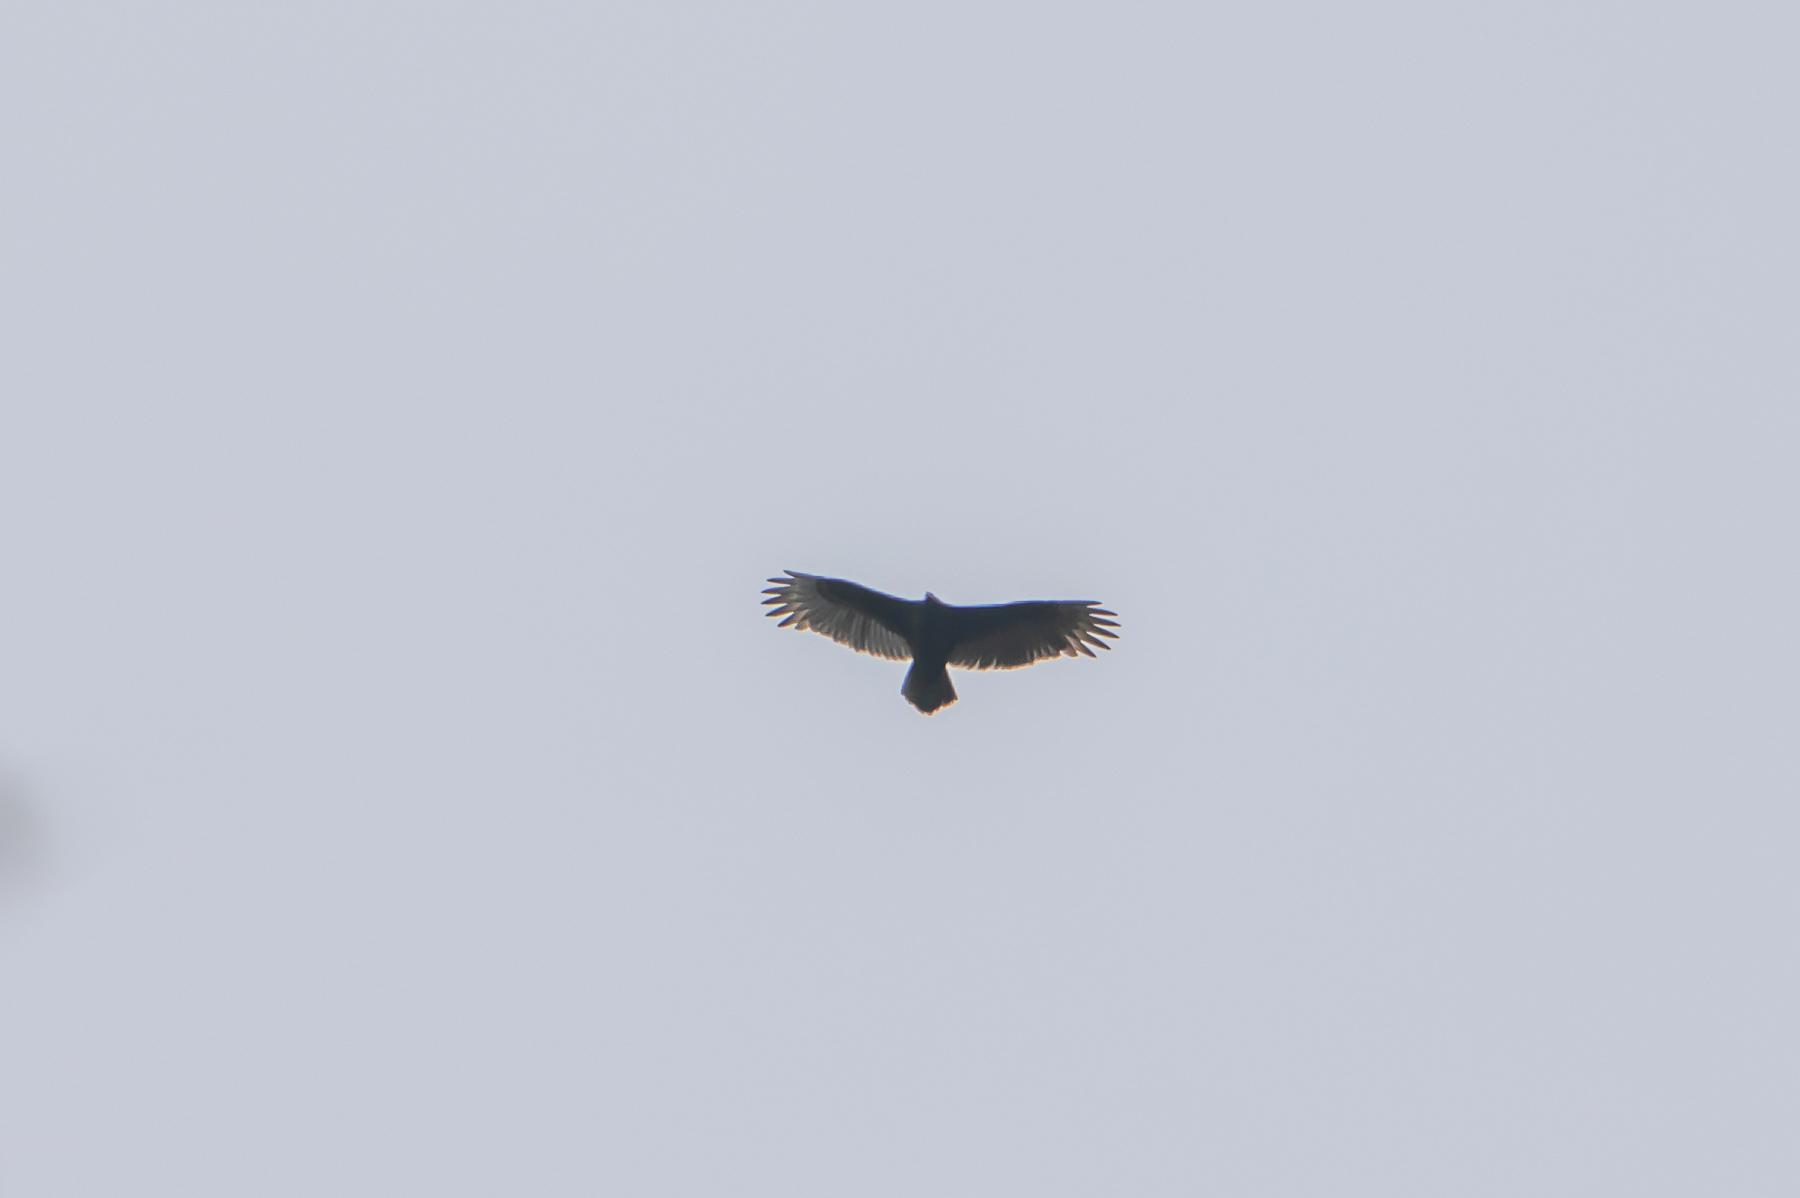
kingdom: Animalia
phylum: Chordata
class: Aves
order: Accipitriformes
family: Cathartidae
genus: Cathartes
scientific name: Cathartes aura
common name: Turkey vulture
